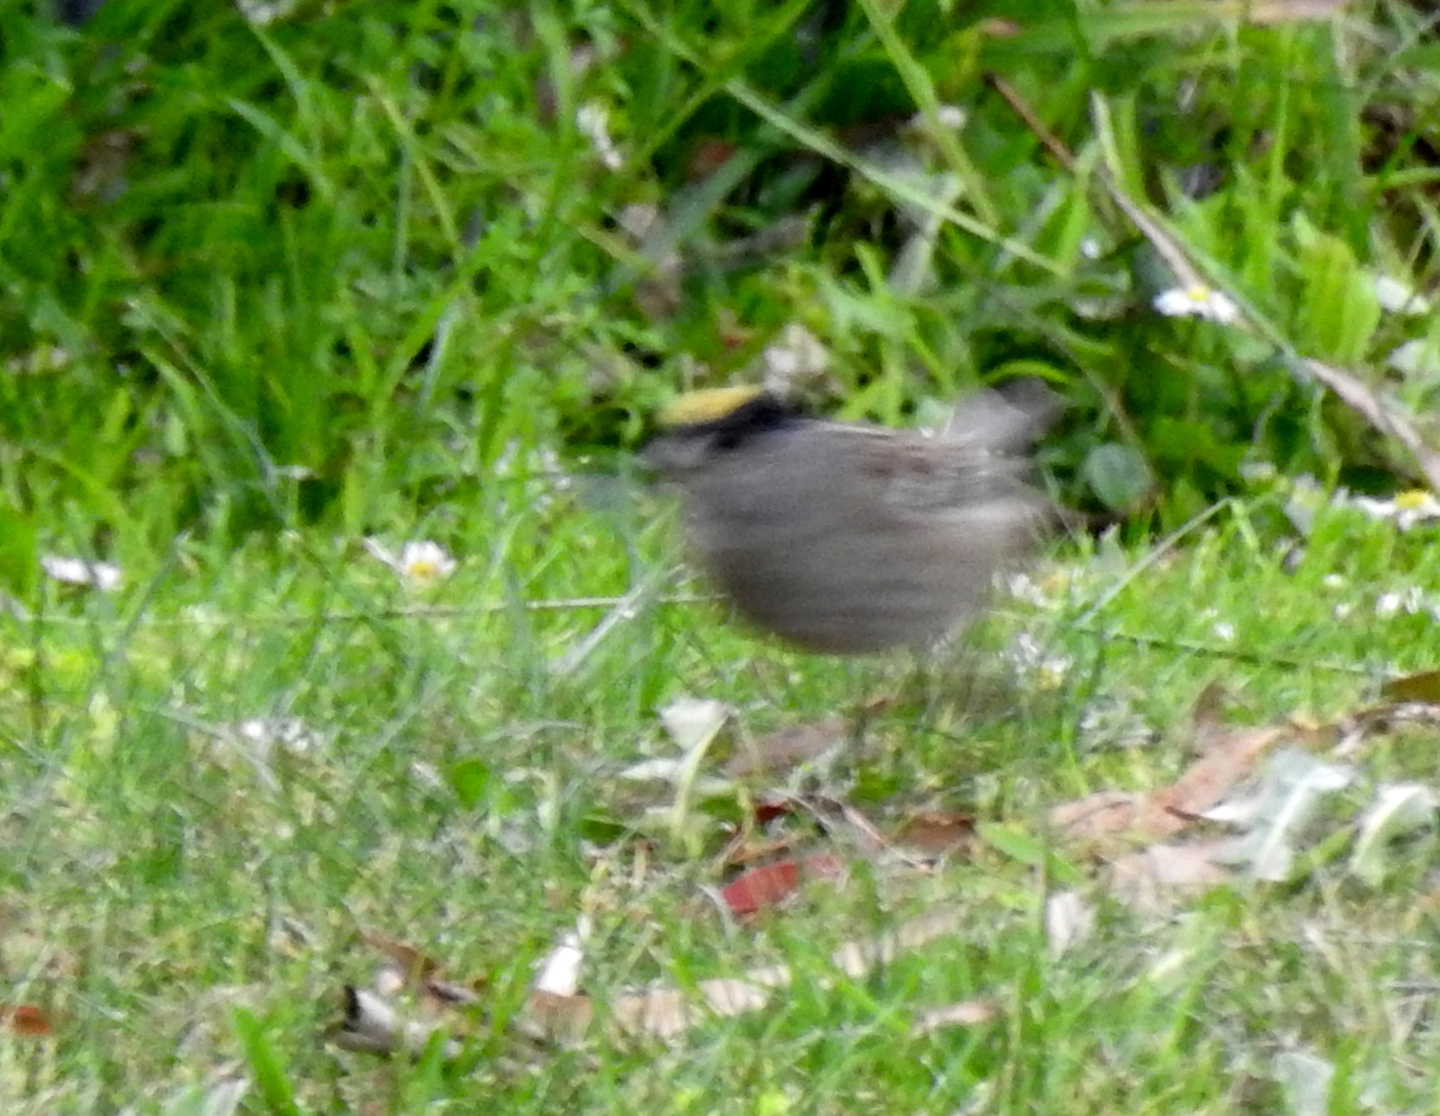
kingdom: Animalia
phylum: Chordata
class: Aves
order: Passeriformes
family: Passerellidae
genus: Zonotrichia
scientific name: Zonotrichia atricapilla
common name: Golden-crowned sparrow
